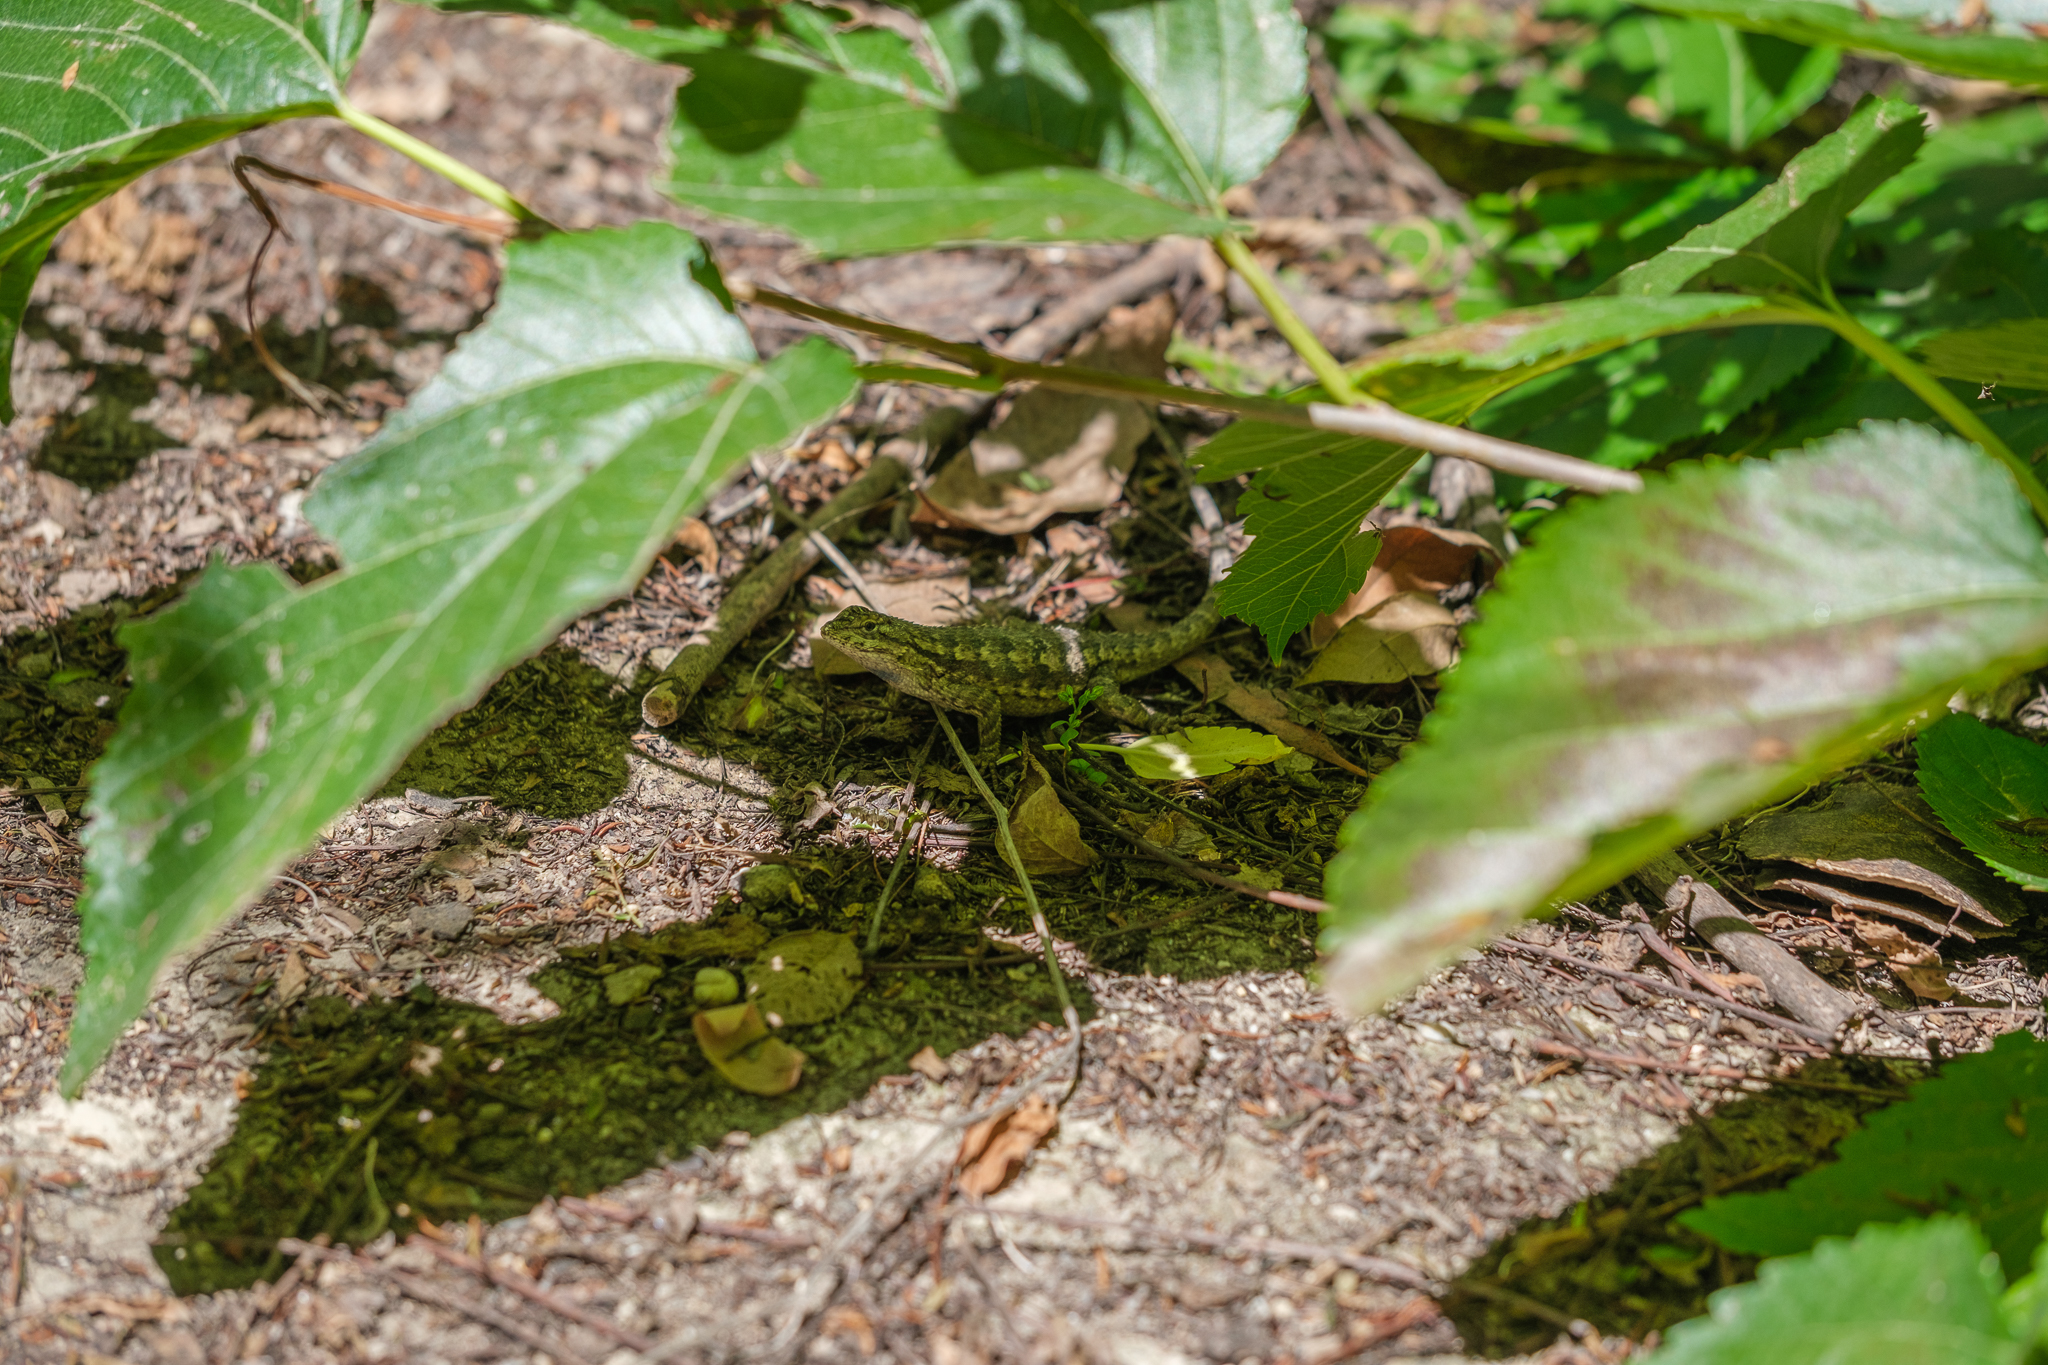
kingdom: Animalia
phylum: Chordata
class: Squamata
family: Phrynosomatidae
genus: Sceloporus
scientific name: Sceloporus occidentalis
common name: Western fence lizard
